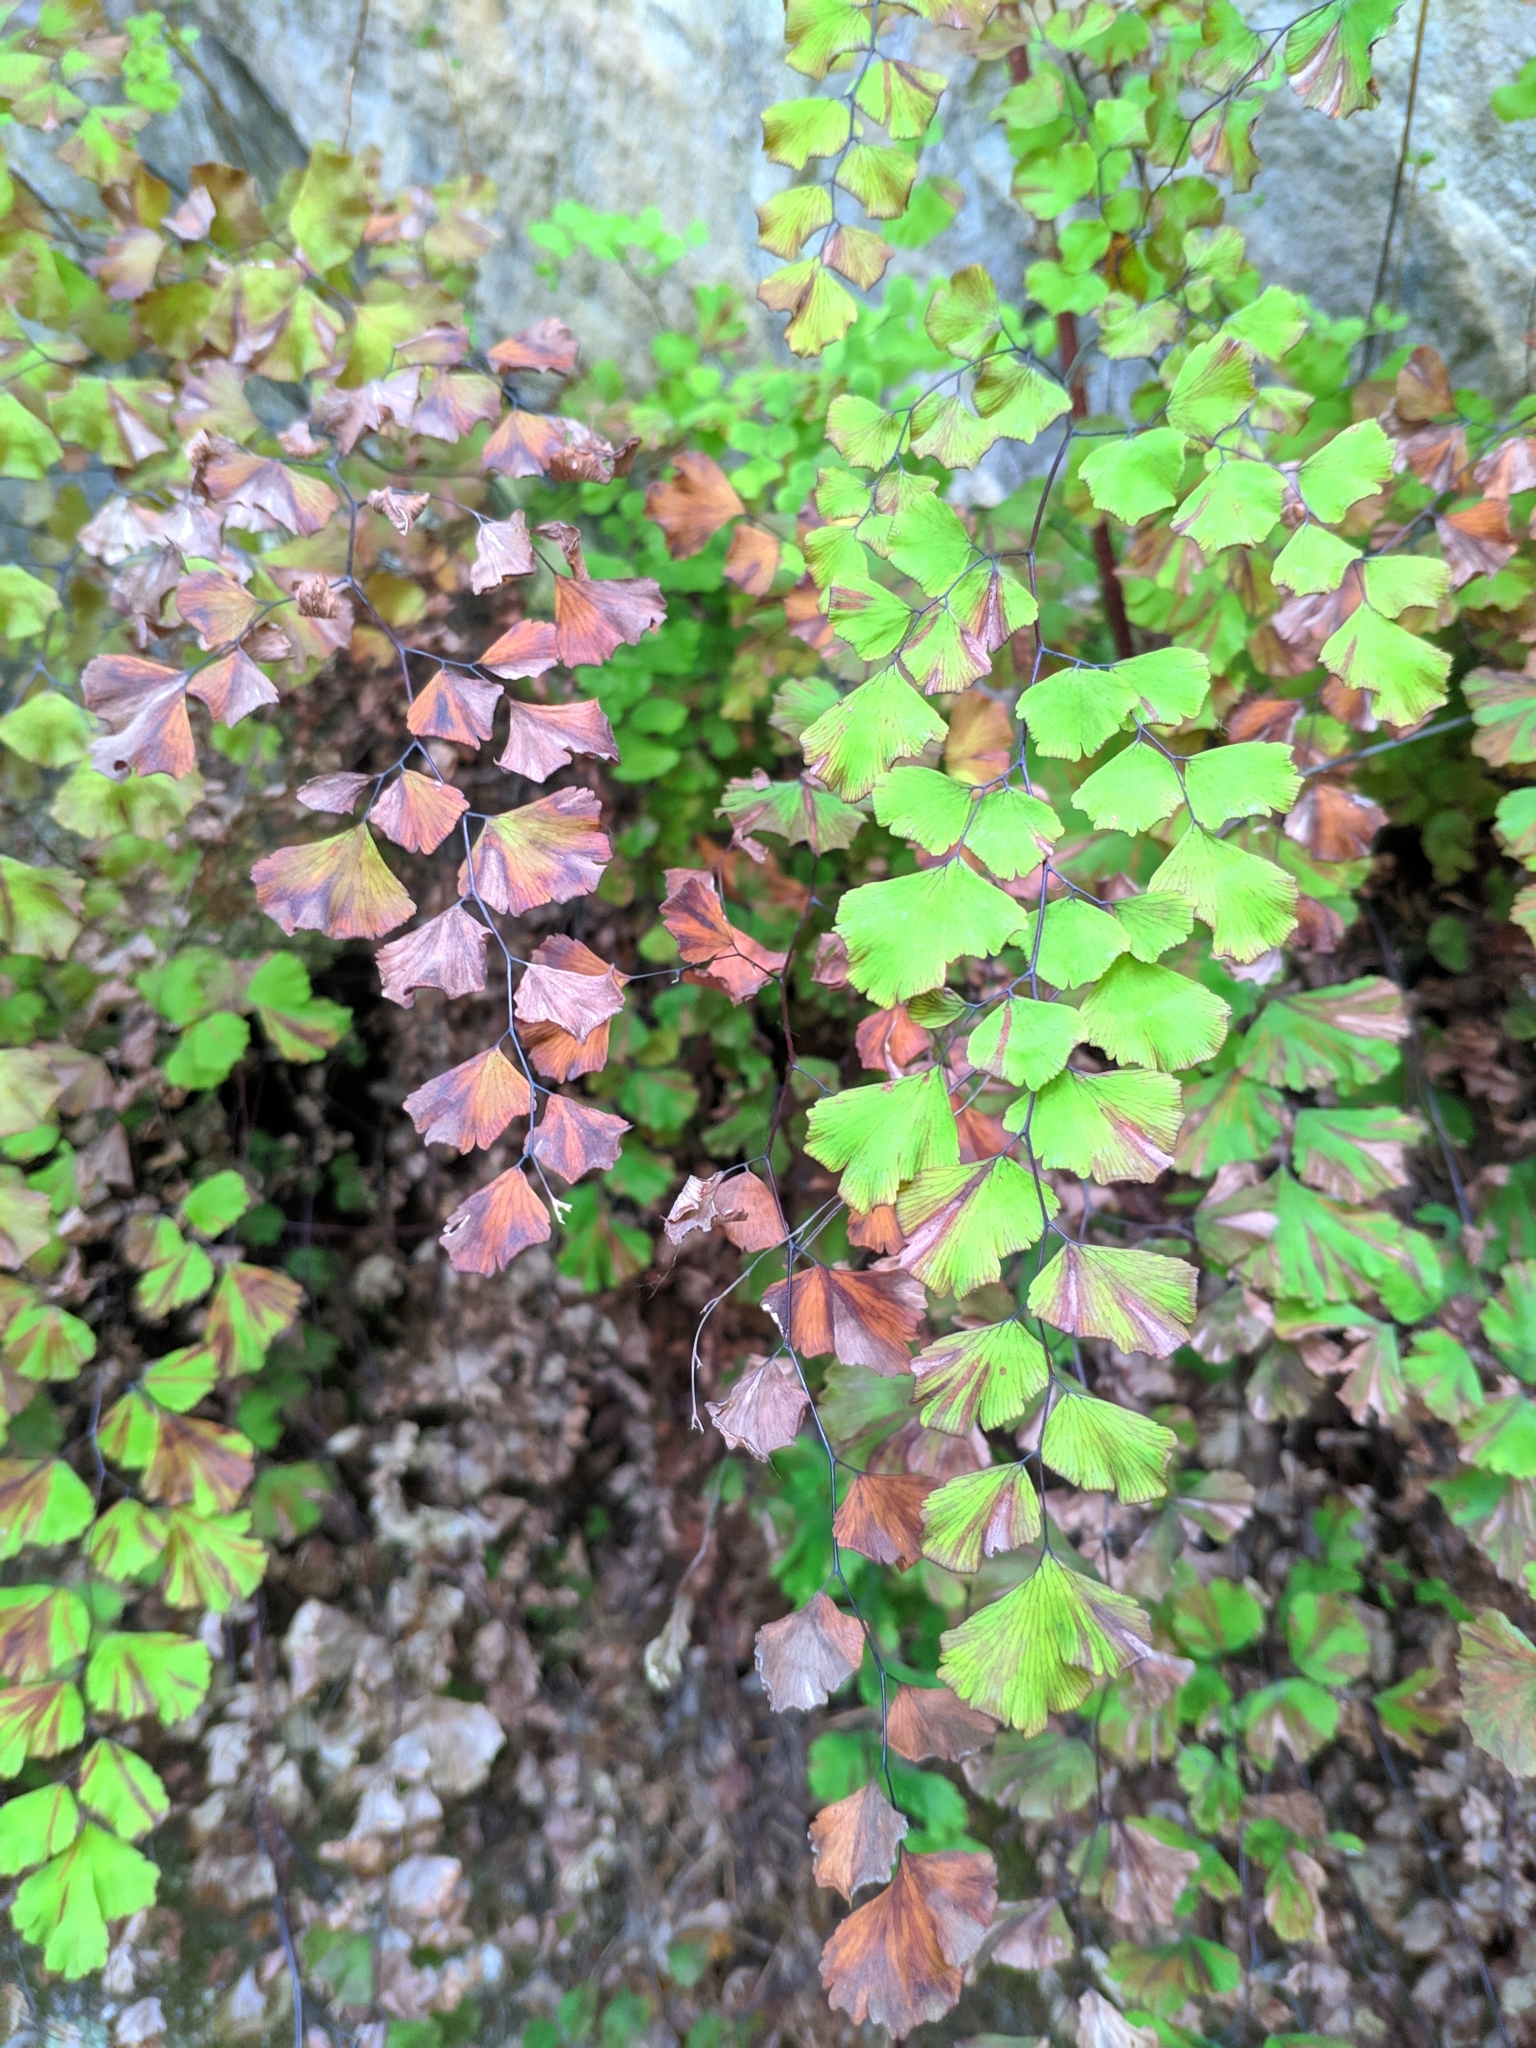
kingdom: Plantae
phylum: Tracheophyta
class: Polypodiopsida
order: Polypodiales
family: Pteridaceae
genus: Adiantum
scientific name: Adiantum capillus-veneris
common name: Maidenhair fern
